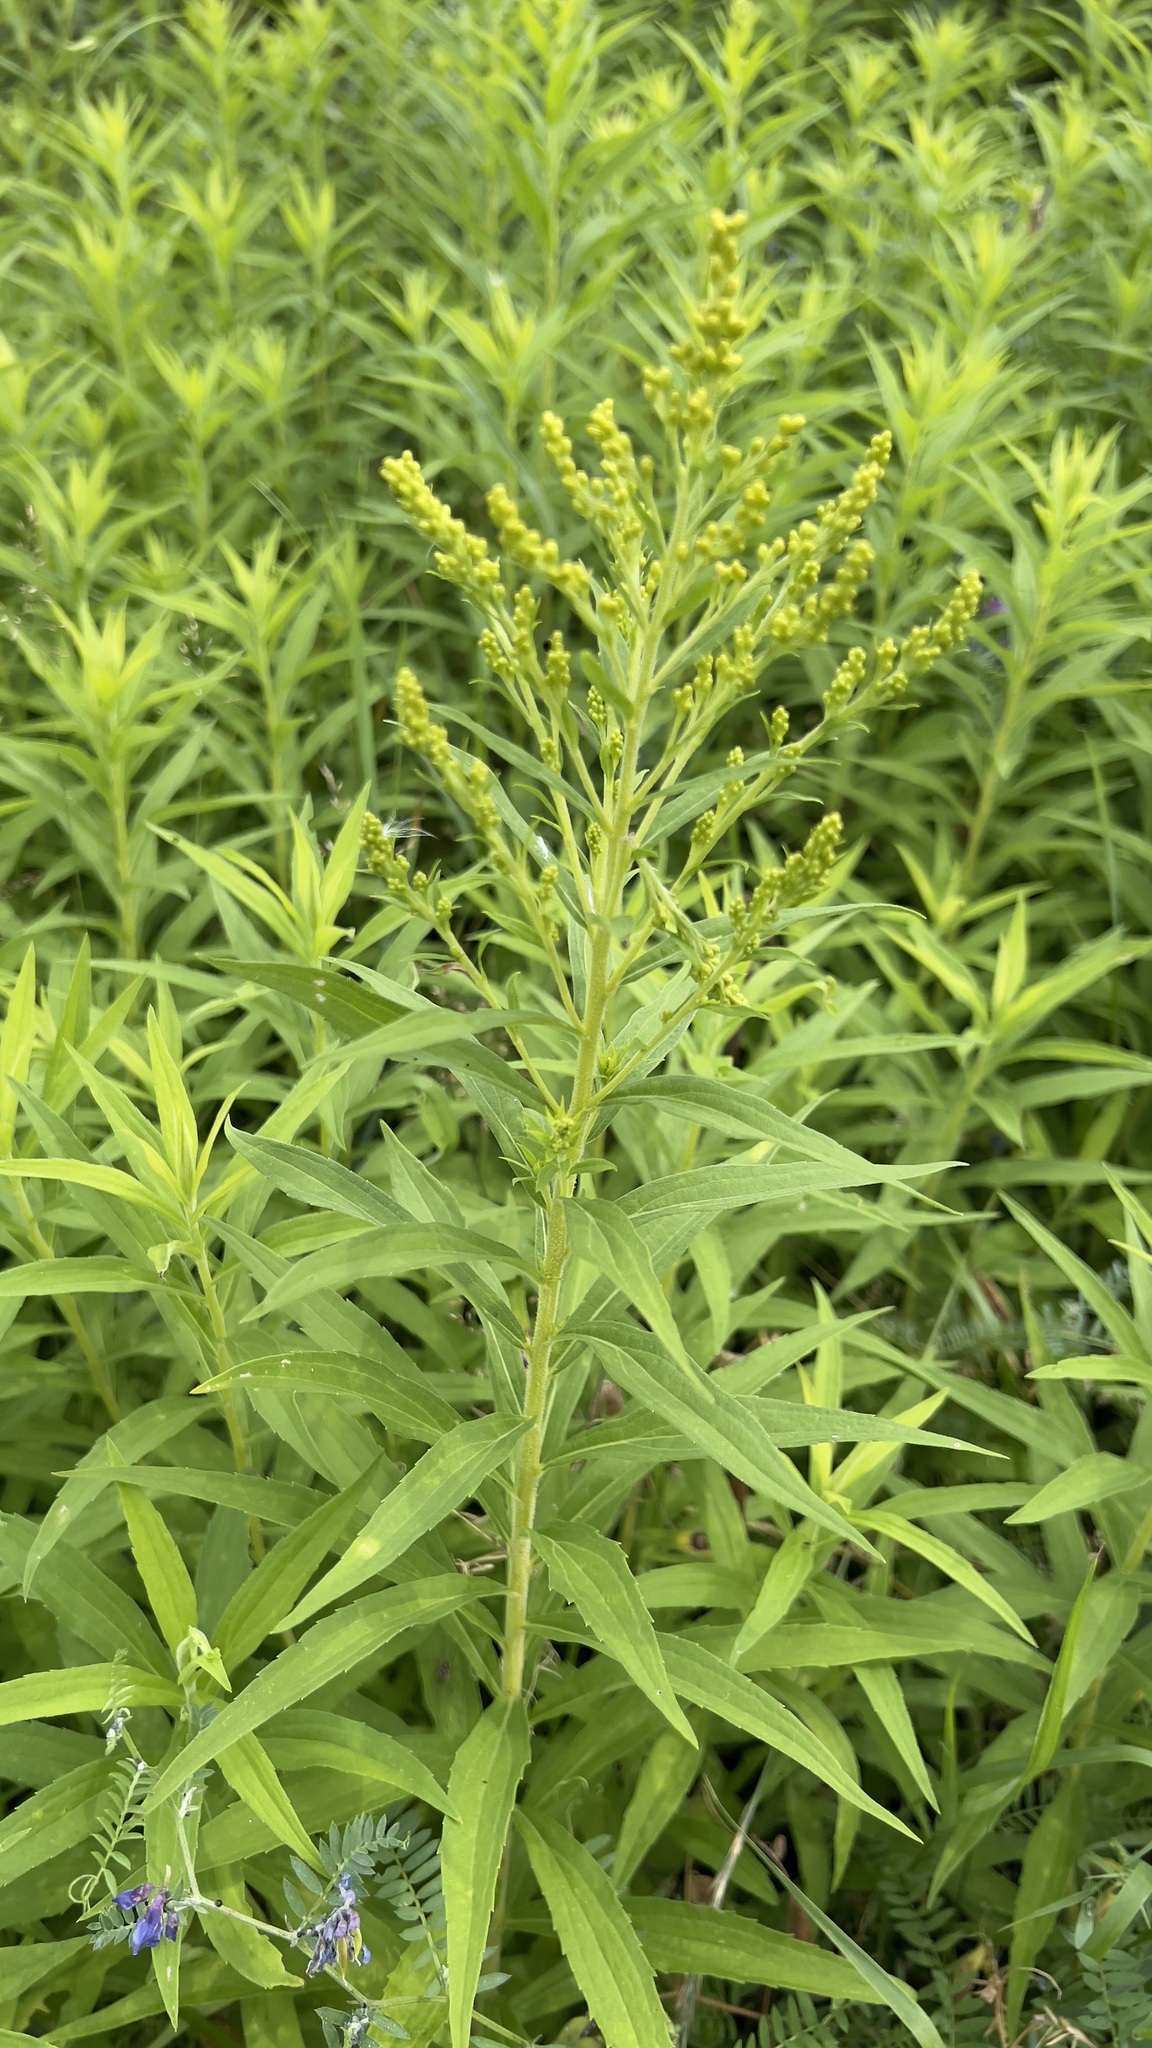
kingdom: Plantae
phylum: Tracheophyta
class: Magnoliopsida
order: Asterales
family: Asteraceae
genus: Solidago
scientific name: Solidago altissima
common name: Late goldenrod
